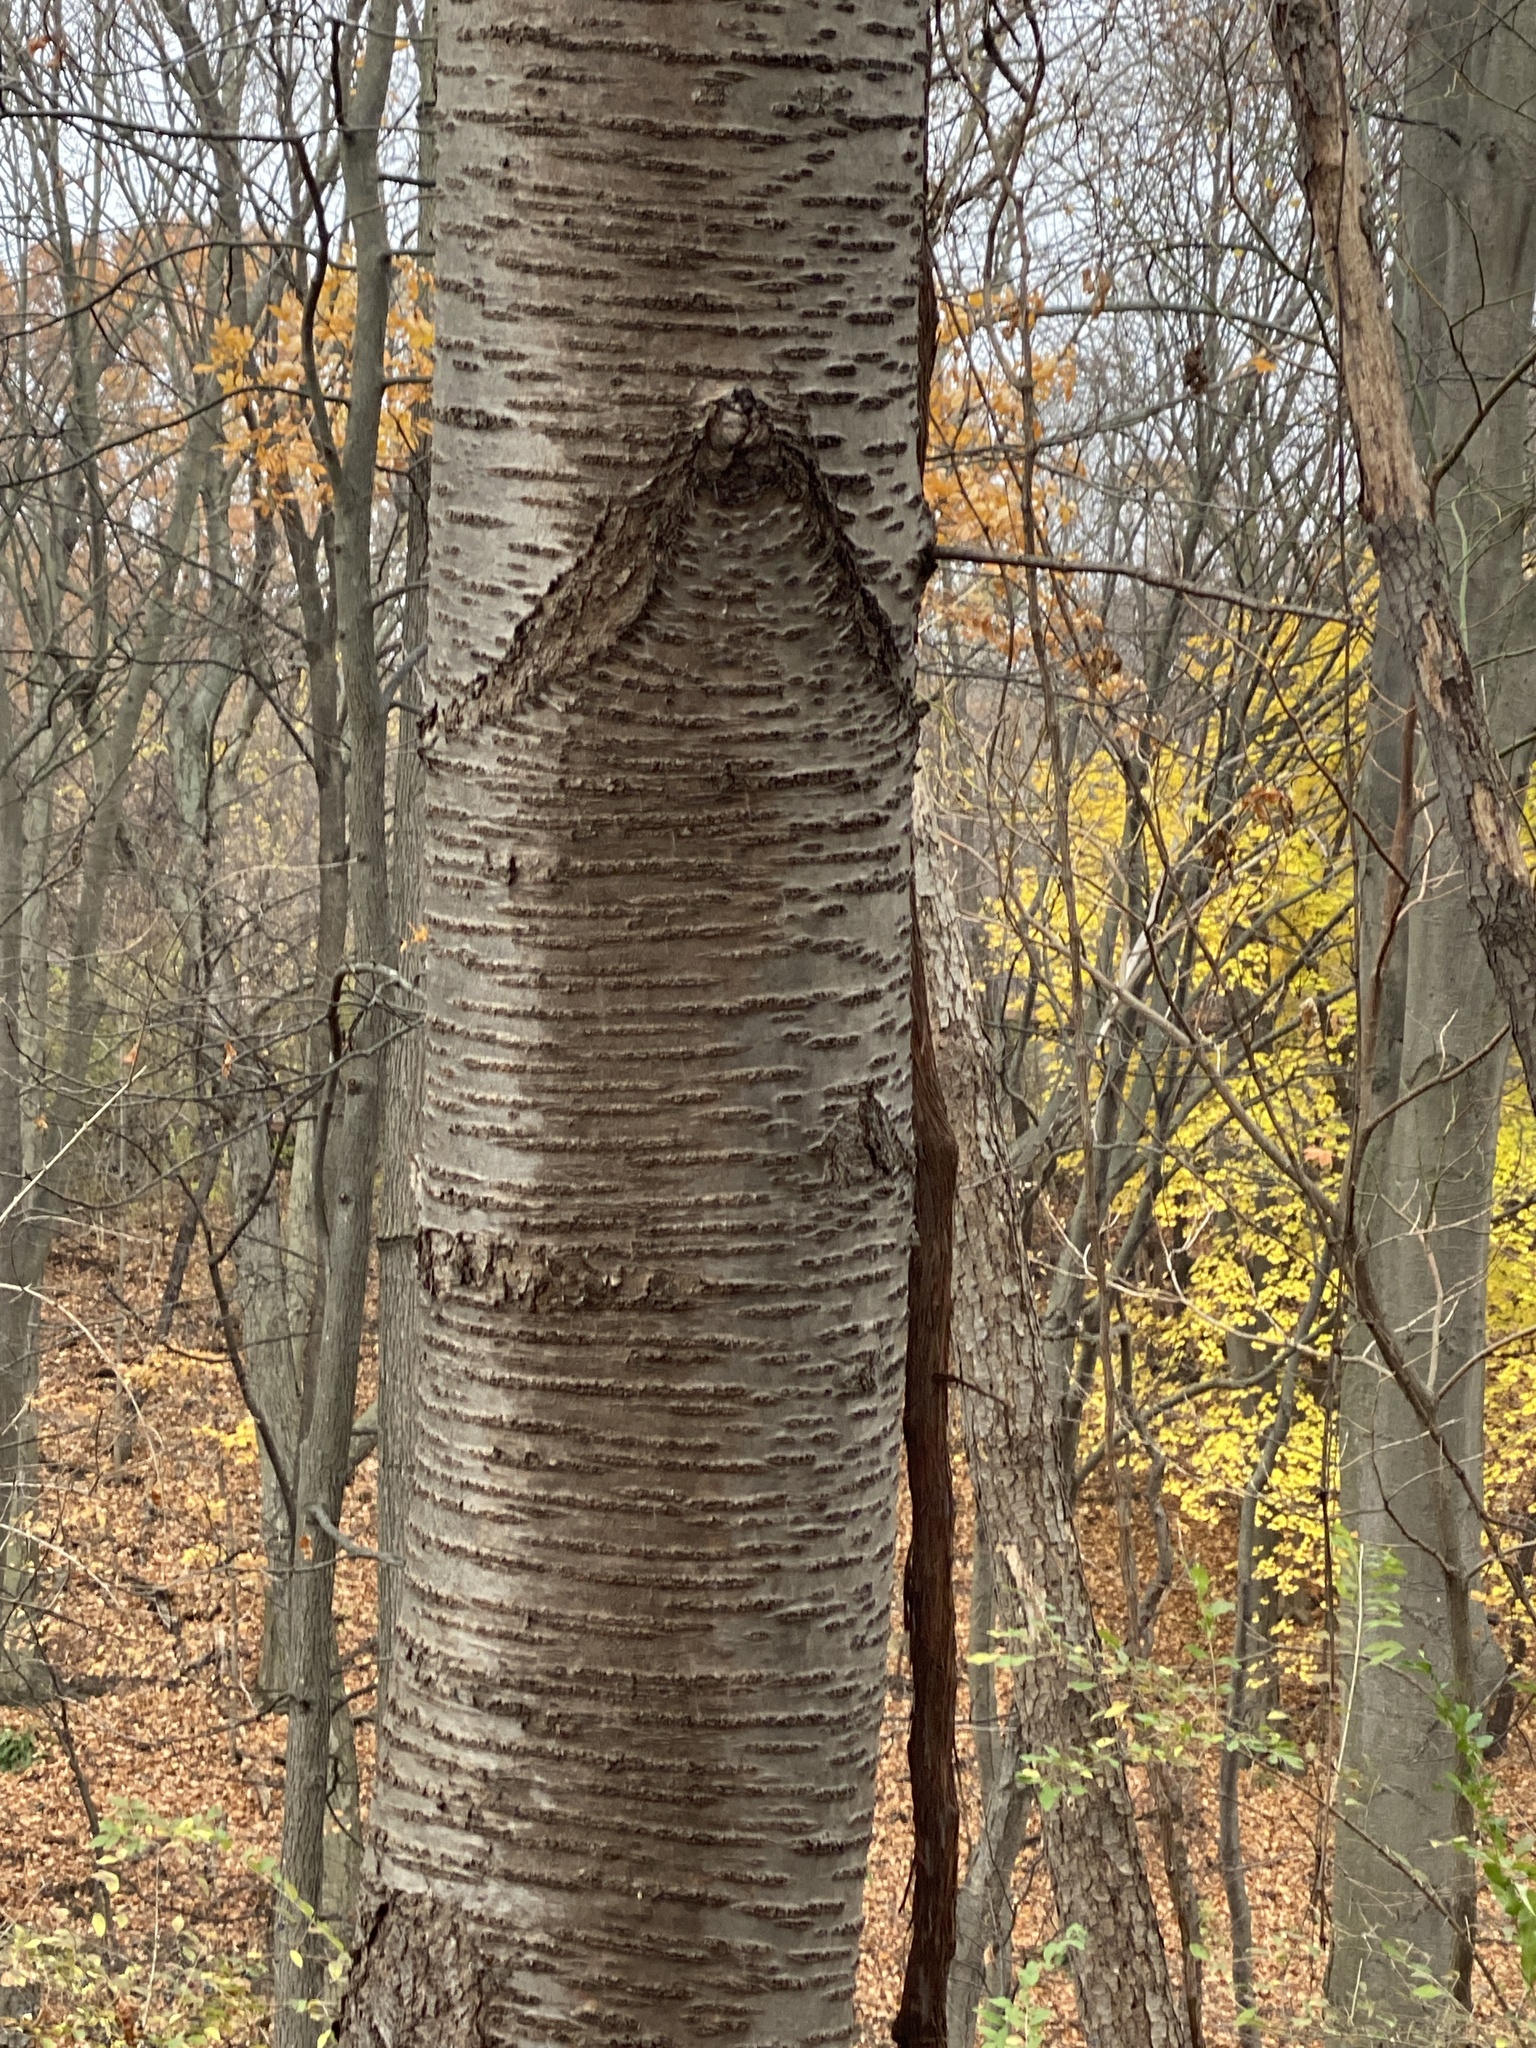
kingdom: Plantae
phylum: Tracheophyta
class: Magnoliopsida
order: Rosales
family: Rosaceae
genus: Prunus
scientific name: Prunus avium
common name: Sweet cherry
